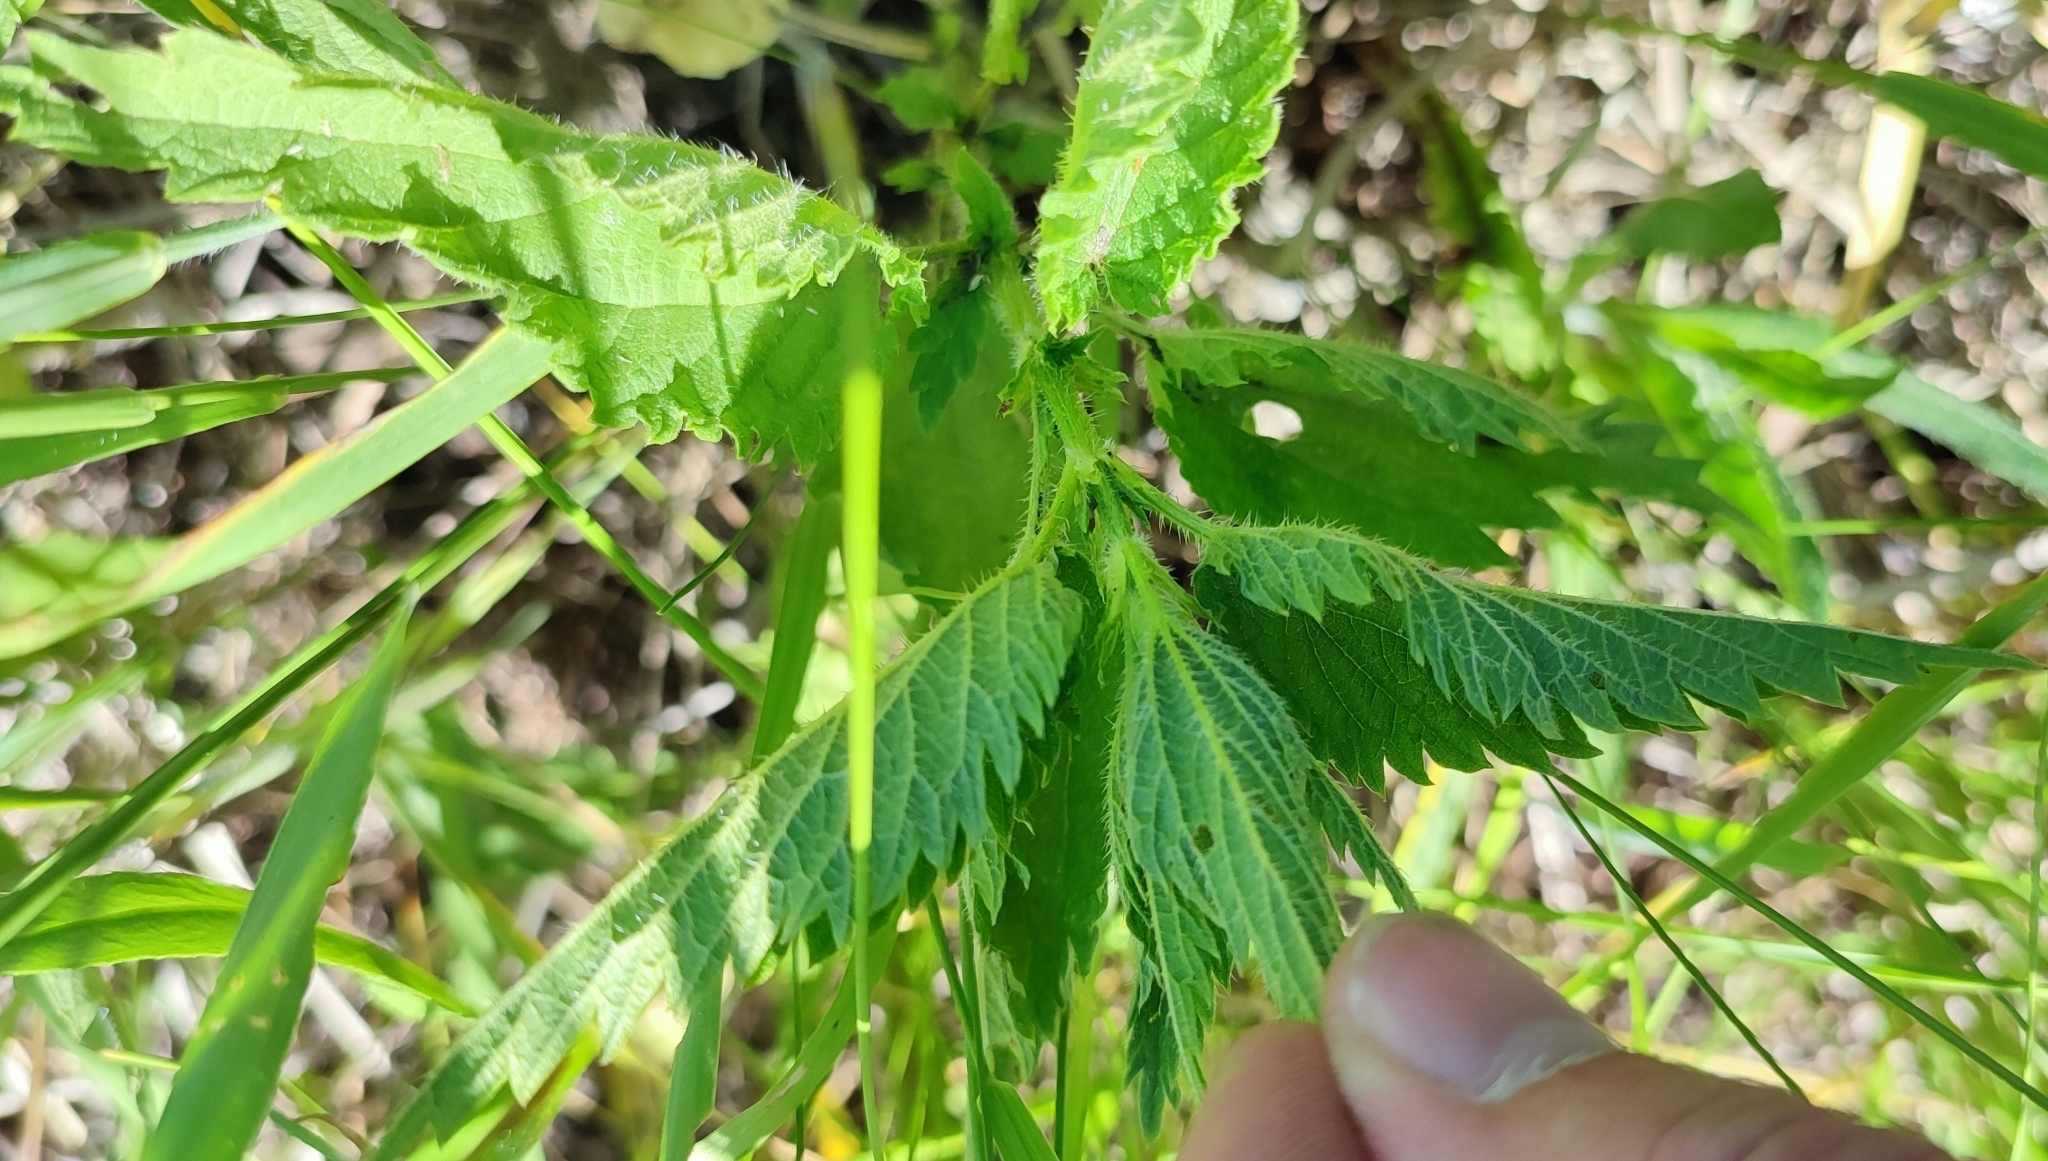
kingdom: Plantae
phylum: Tracheophyta
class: Magnoliopsida
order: Rosales
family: Urticaceae
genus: Urtica
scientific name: Urtica dioica
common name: Common nettle
